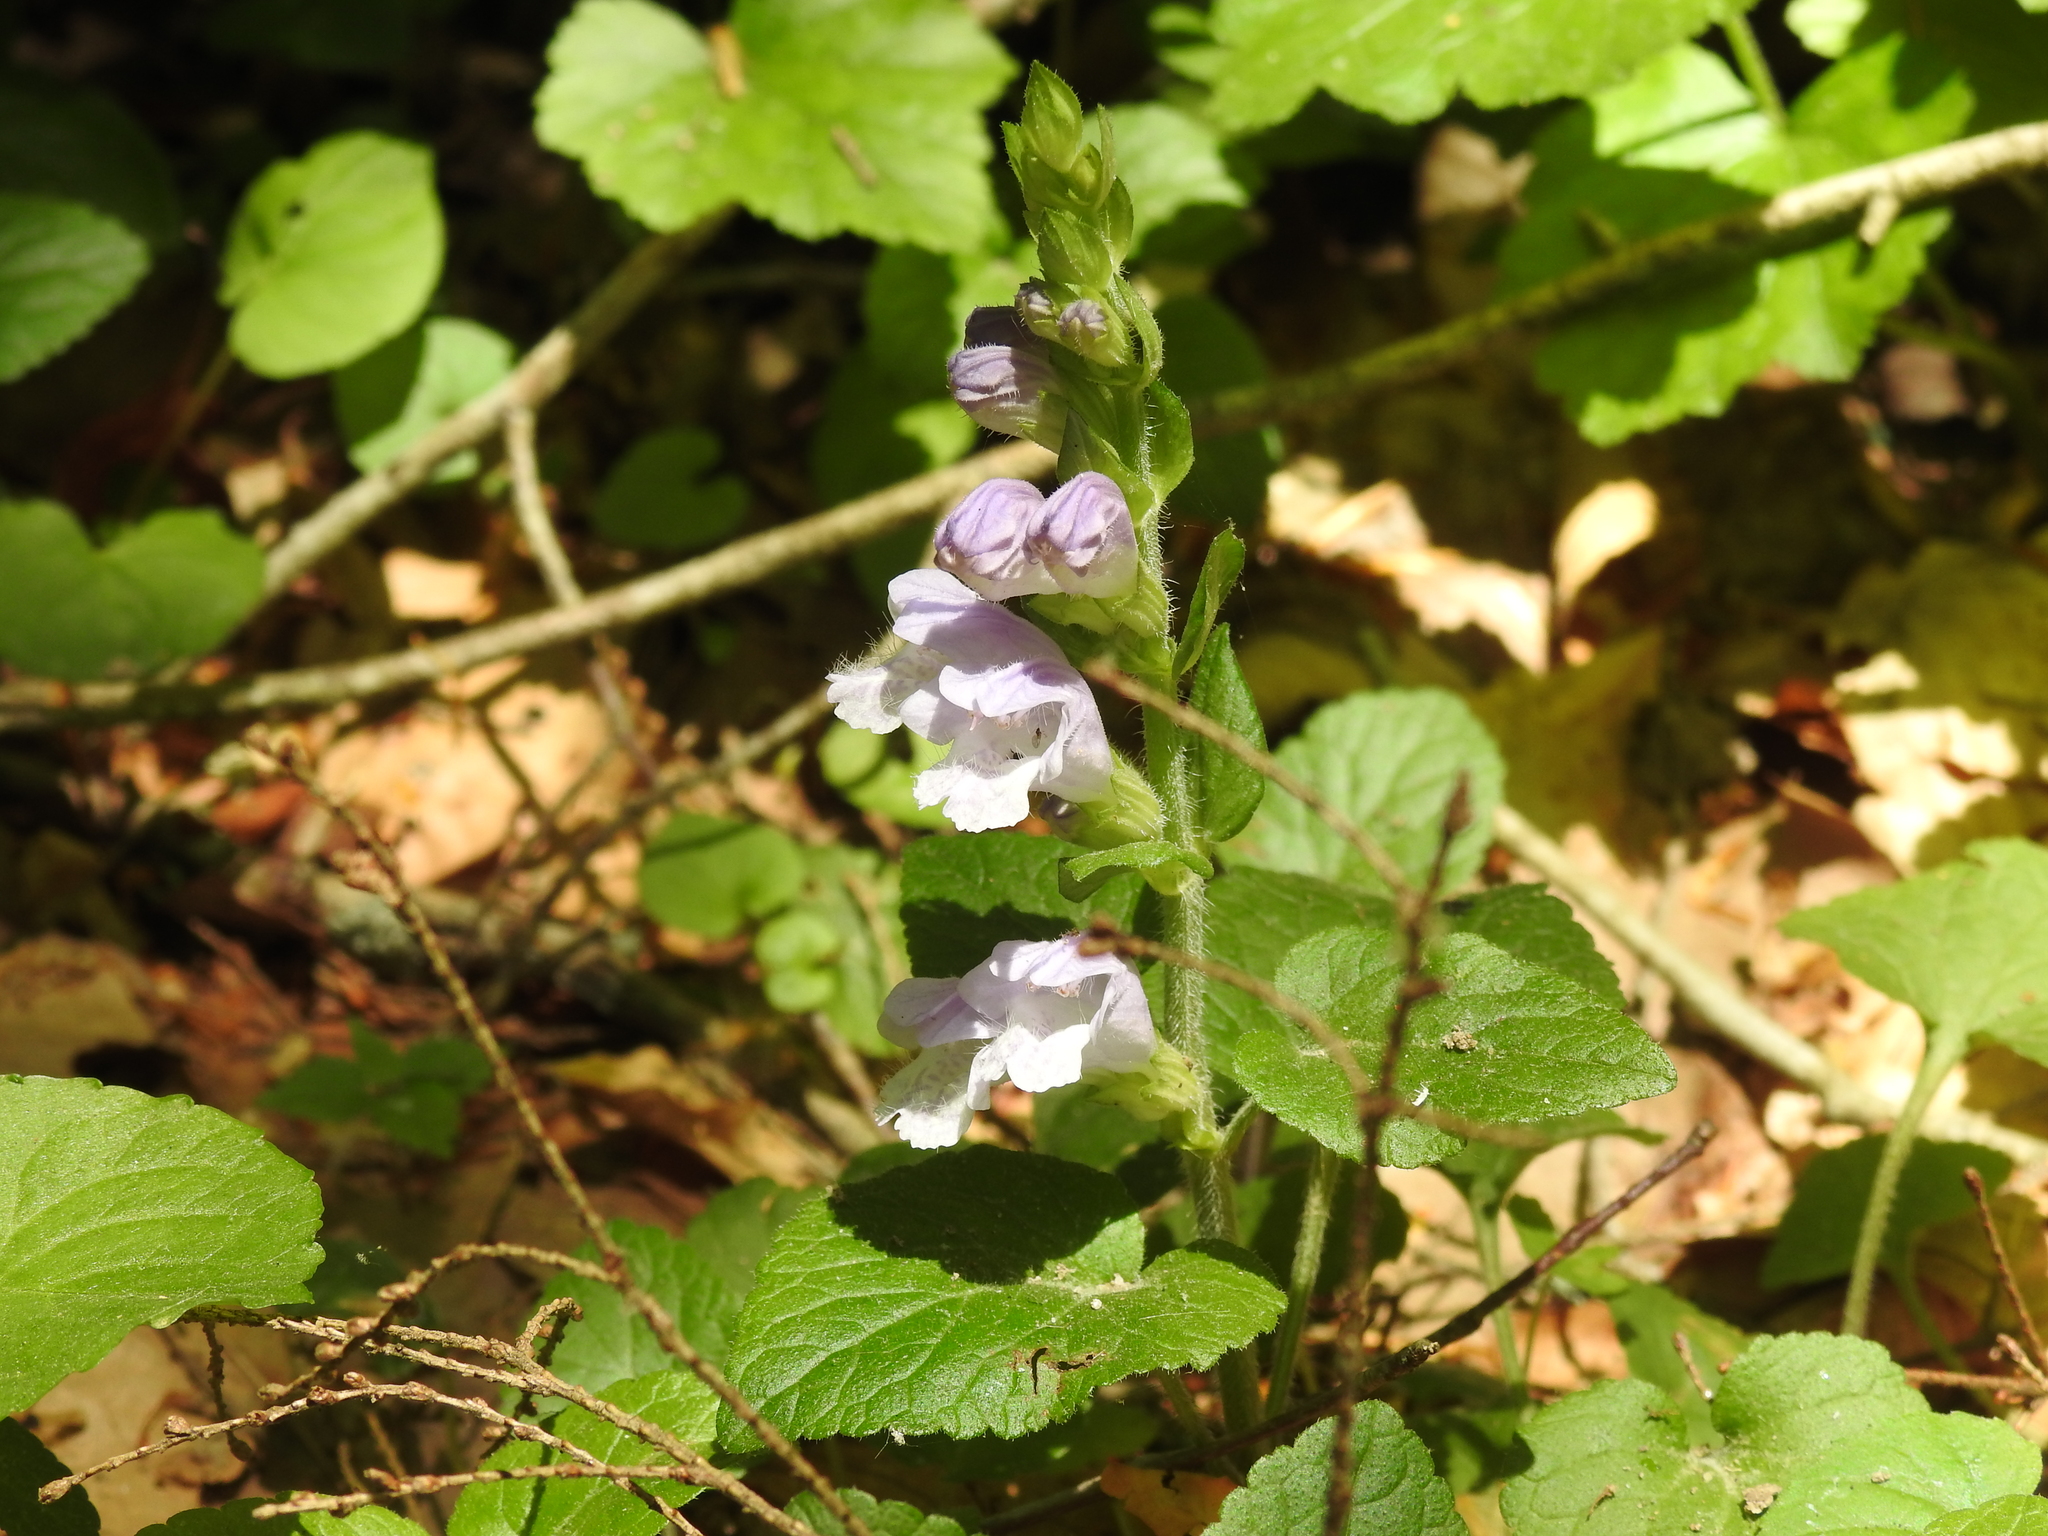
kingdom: Plantae
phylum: Tracheophyta
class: Magnoliopsida
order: Lamiales
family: Lamiaceae
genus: Meehania
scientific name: Meehania cordata
